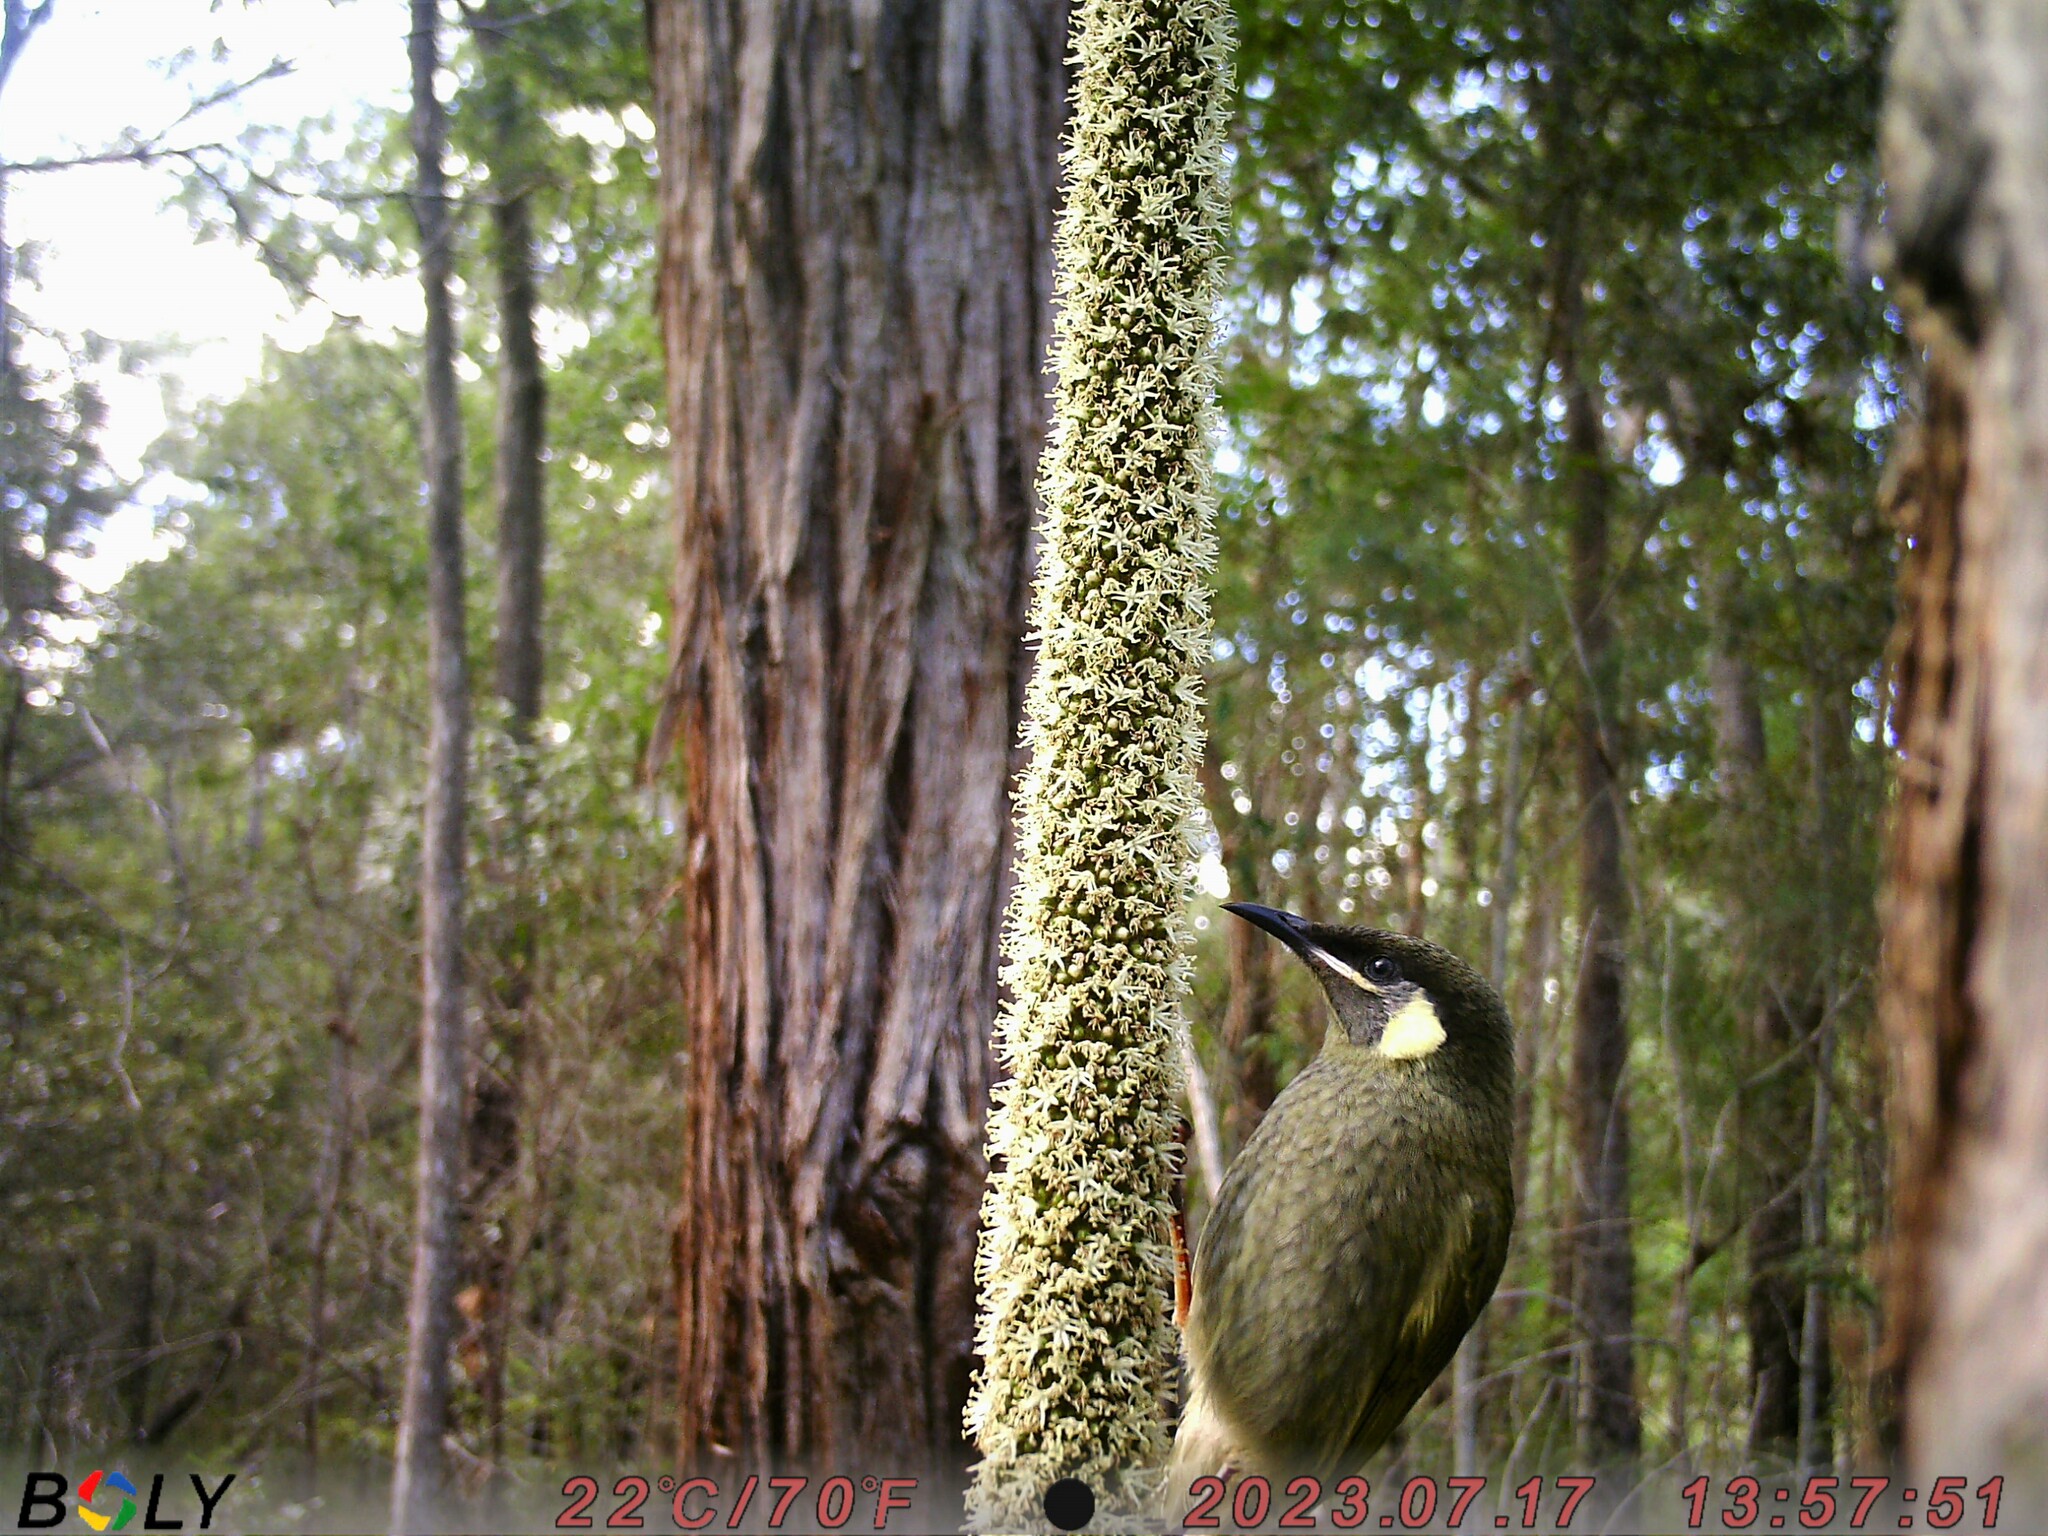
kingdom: Animalia
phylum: Chordata
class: Aves
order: Passeriformes
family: Meliphagidae
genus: Meliphaga
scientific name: Meliphaga lewinii
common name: Lewin's honeyeater
